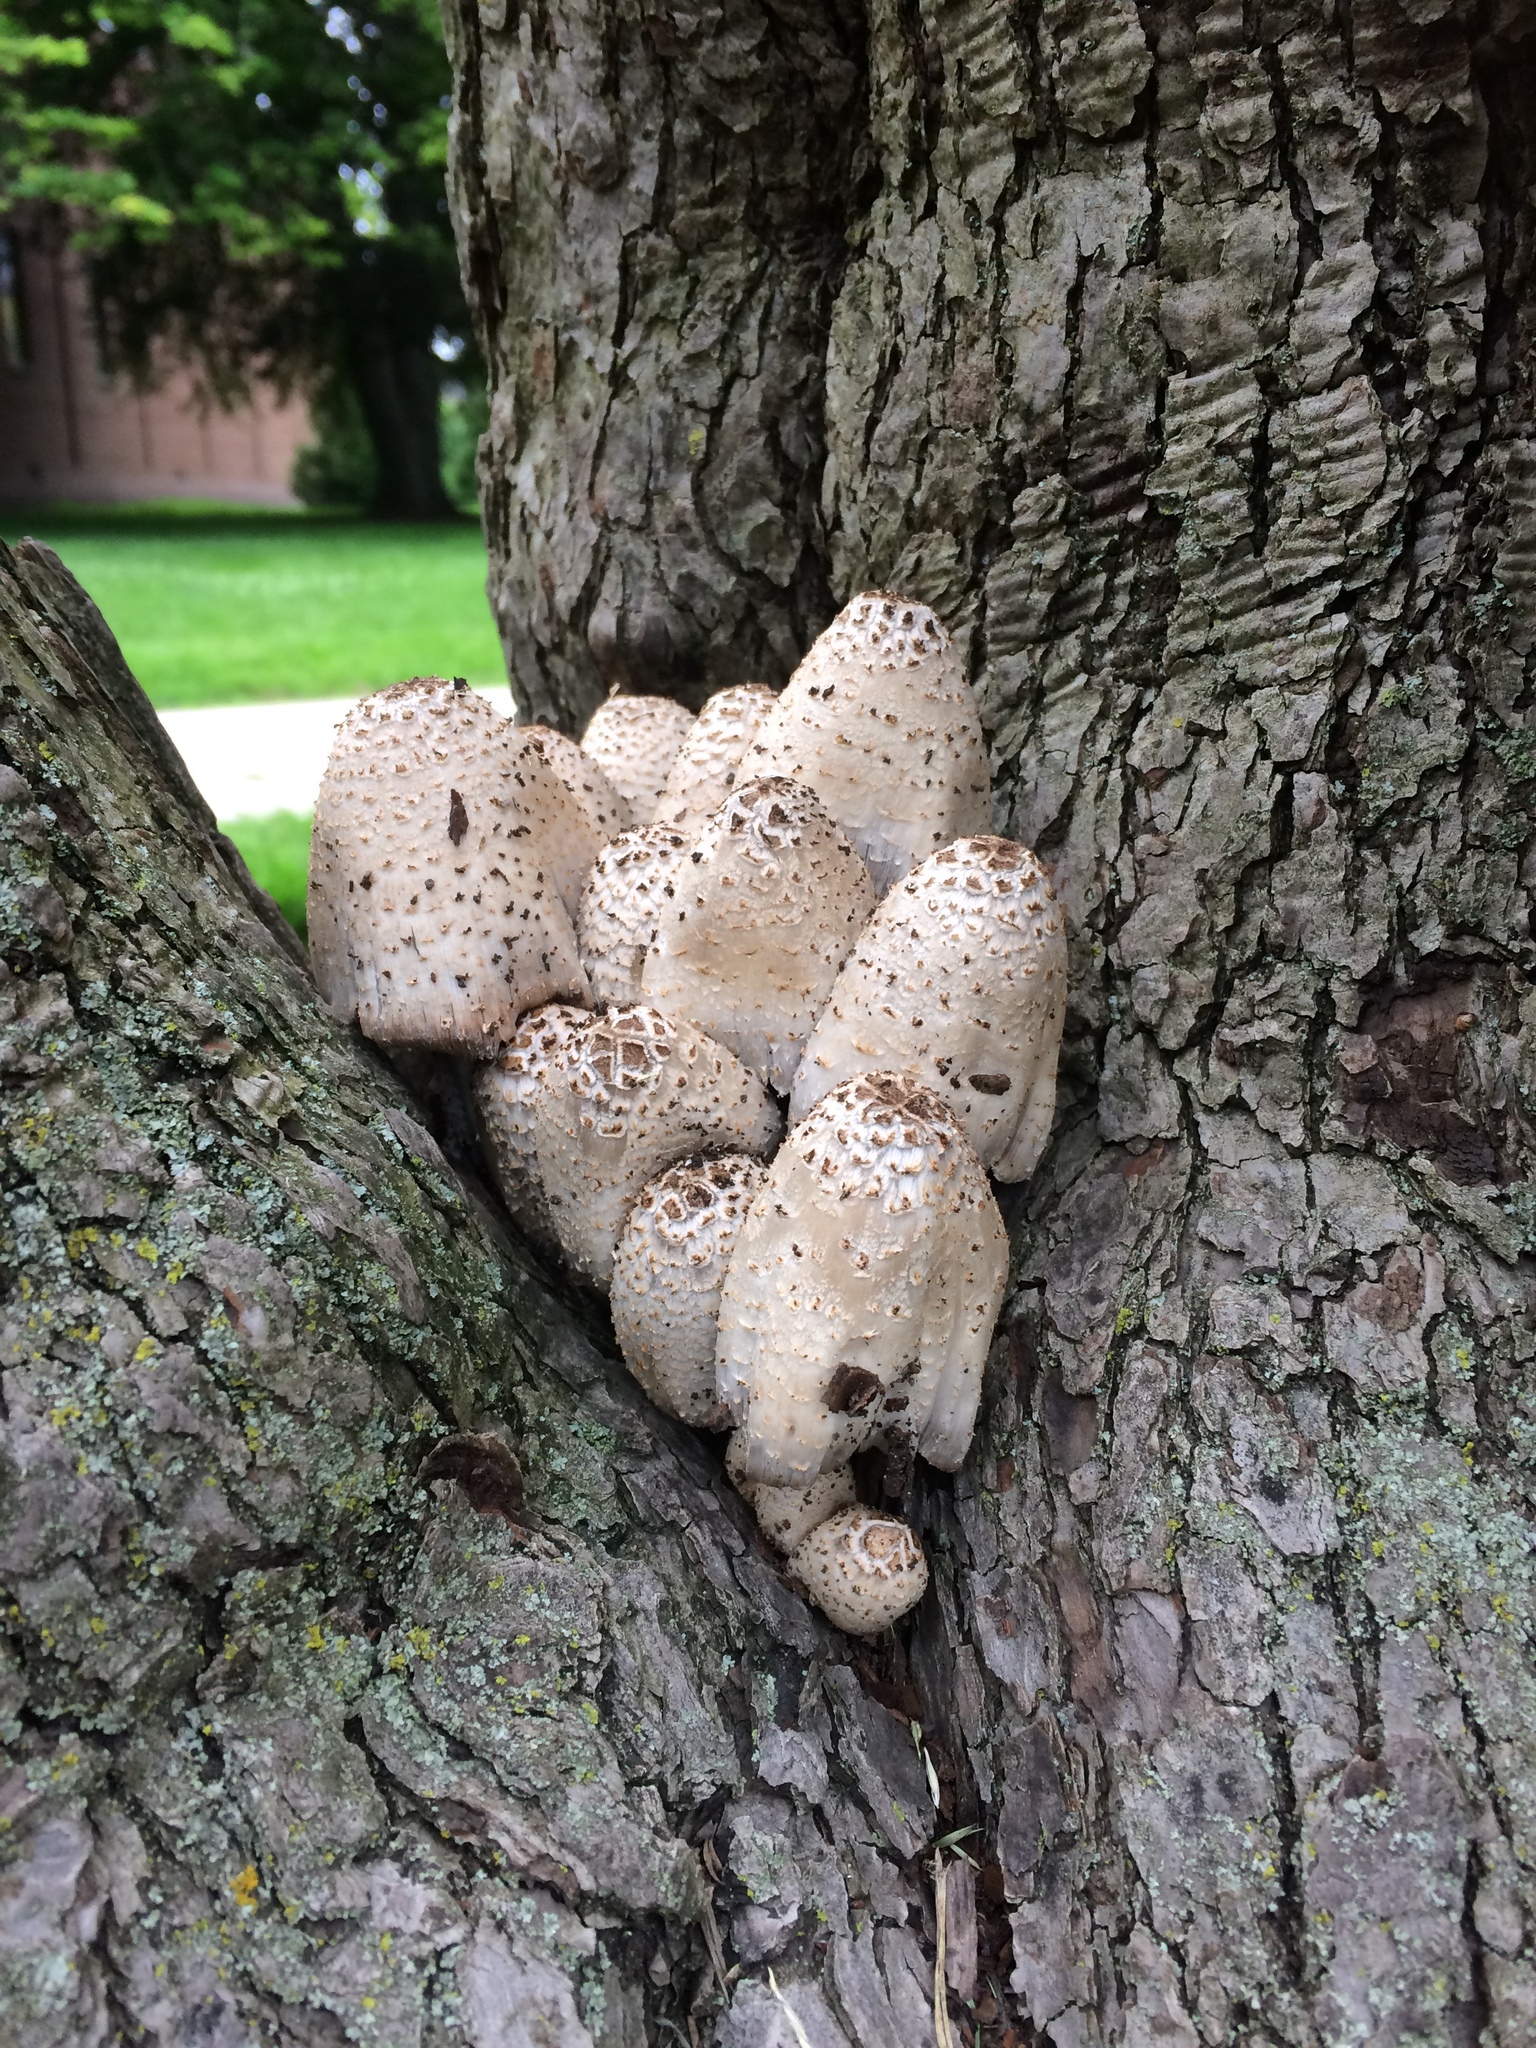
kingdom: Fungi
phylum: Basidiomycota
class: Agaricomycetes
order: Agaricales
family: Psathyrellaceae
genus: Coprinopsis
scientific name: Coprinopsis variegata
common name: Scaly ink cap
